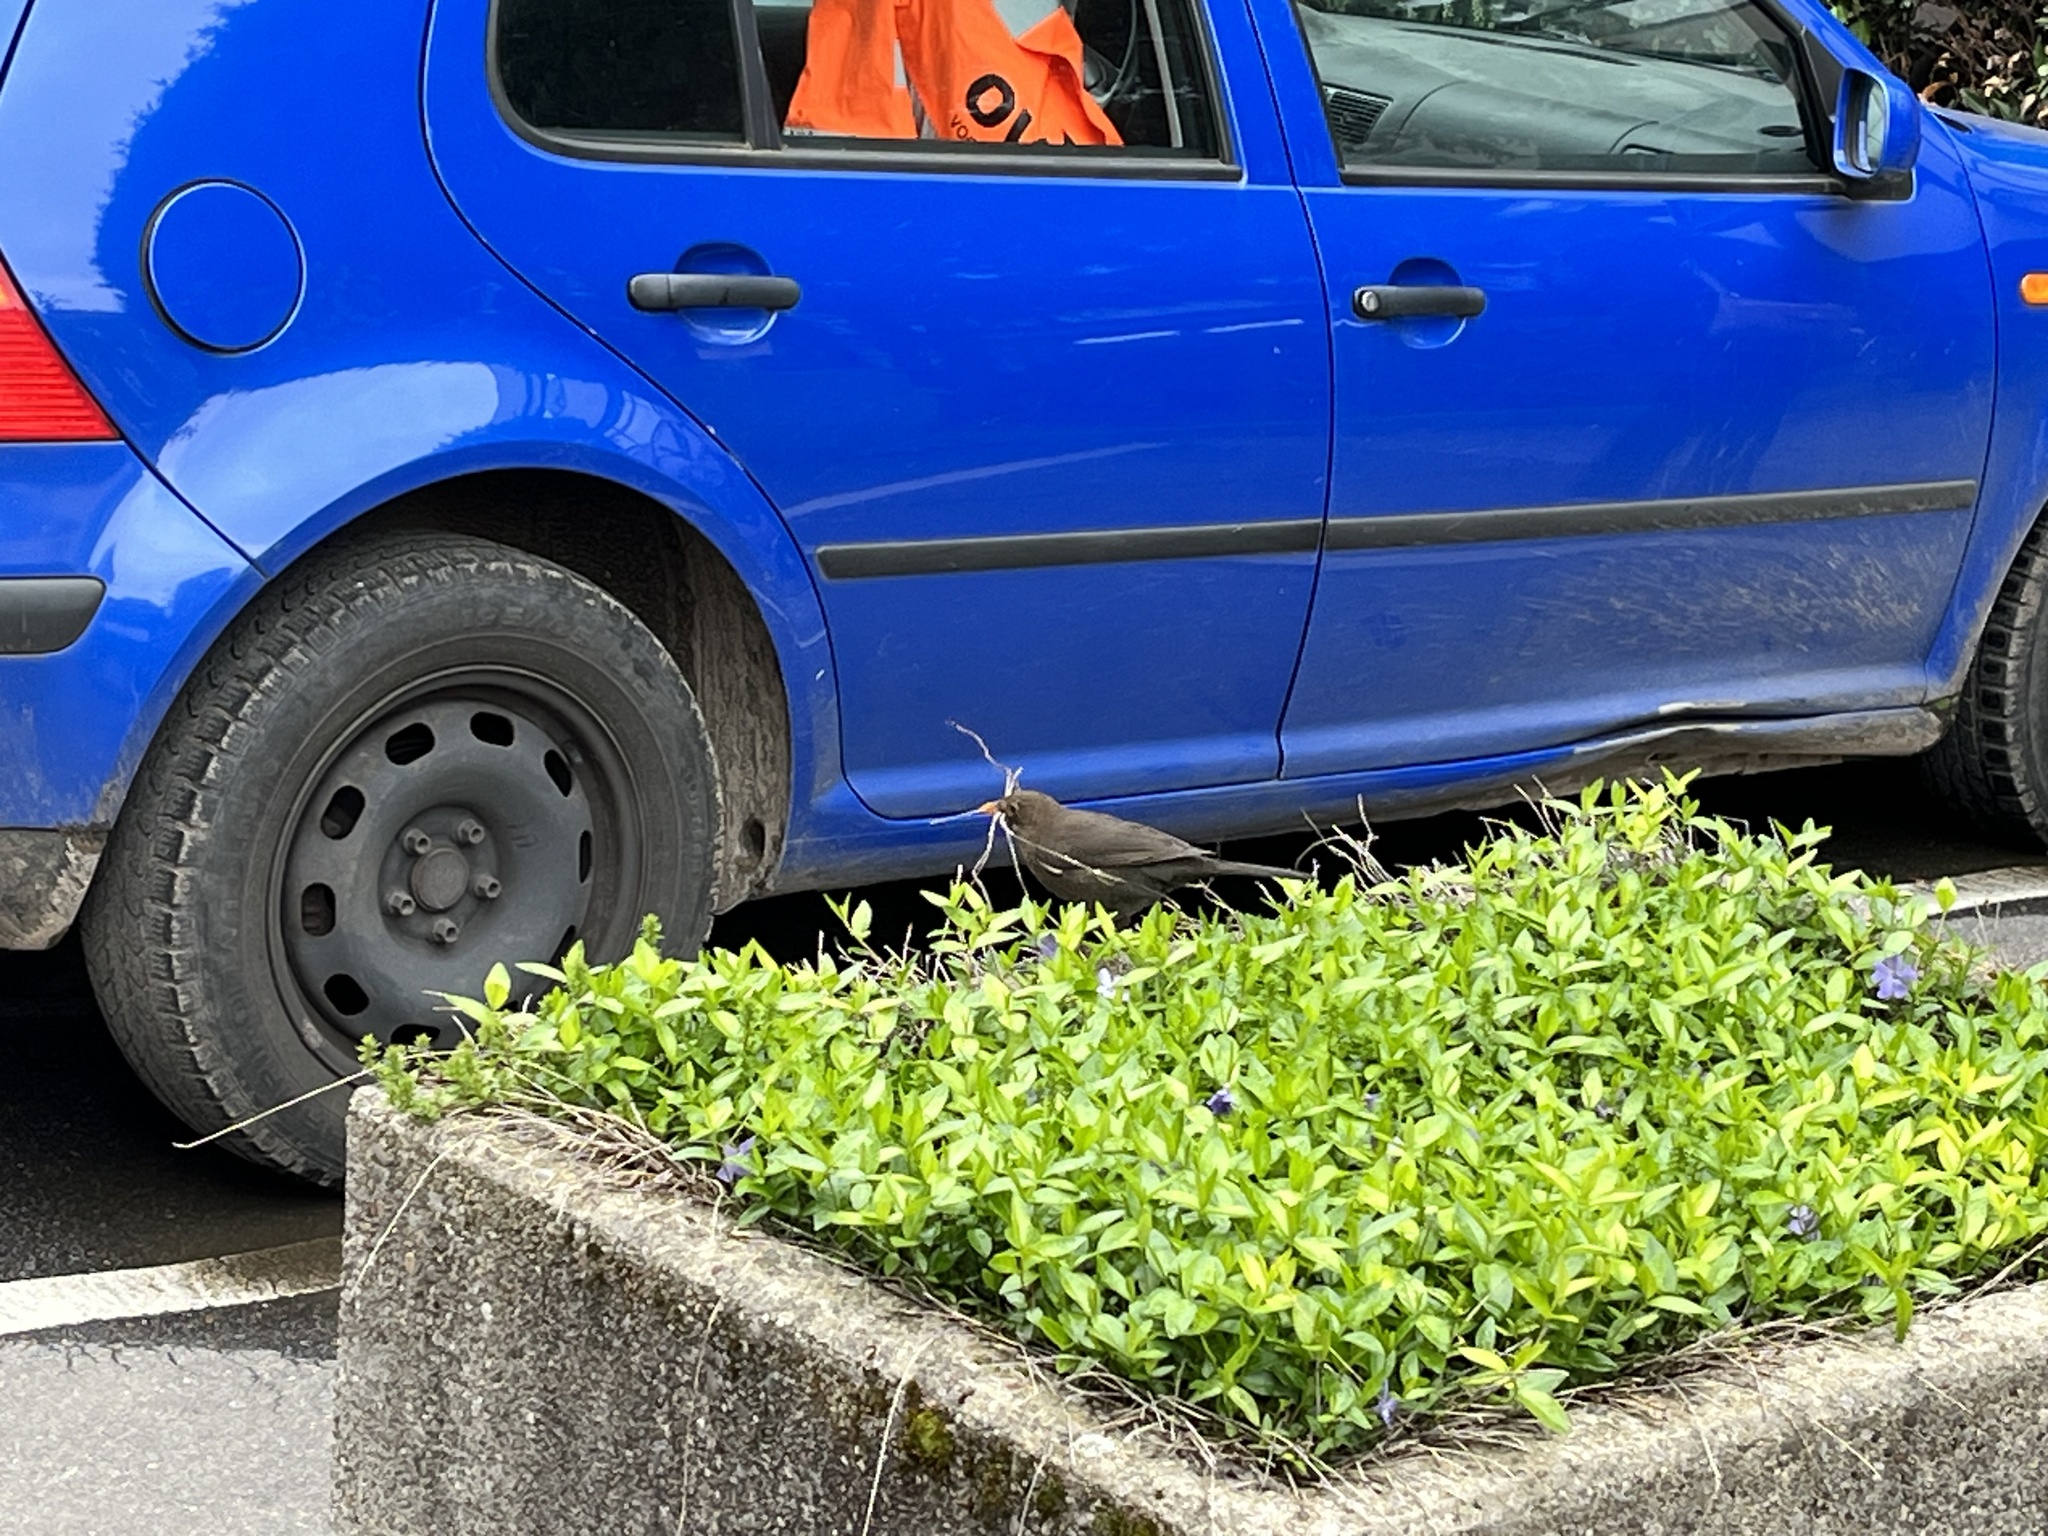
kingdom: Animalia
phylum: Chordata
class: Aves
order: Passeriformes
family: Turdidae
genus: Turdus
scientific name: Turdus merula
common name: Common blackbird
